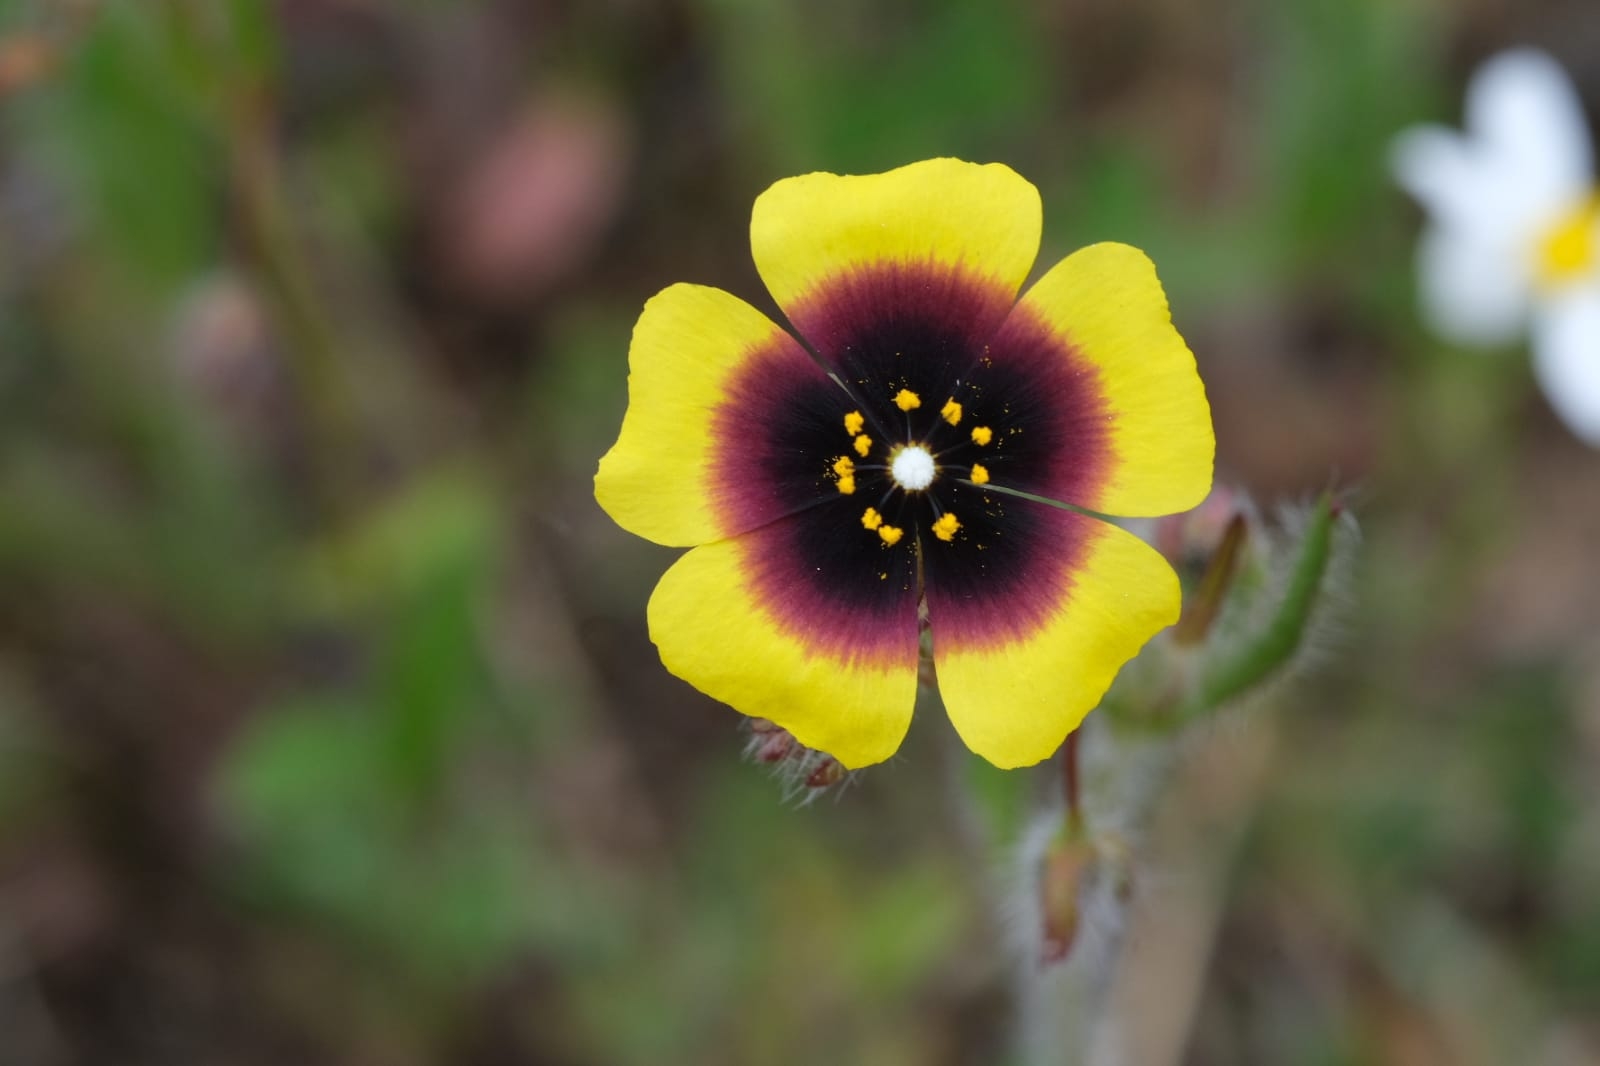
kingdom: Plantae
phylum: Tracheophyta
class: Magnoliopsida
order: Malvales
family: Cistaceae
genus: Tuberaria
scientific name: Tuberaria guttata
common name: Spotted rock-rose
